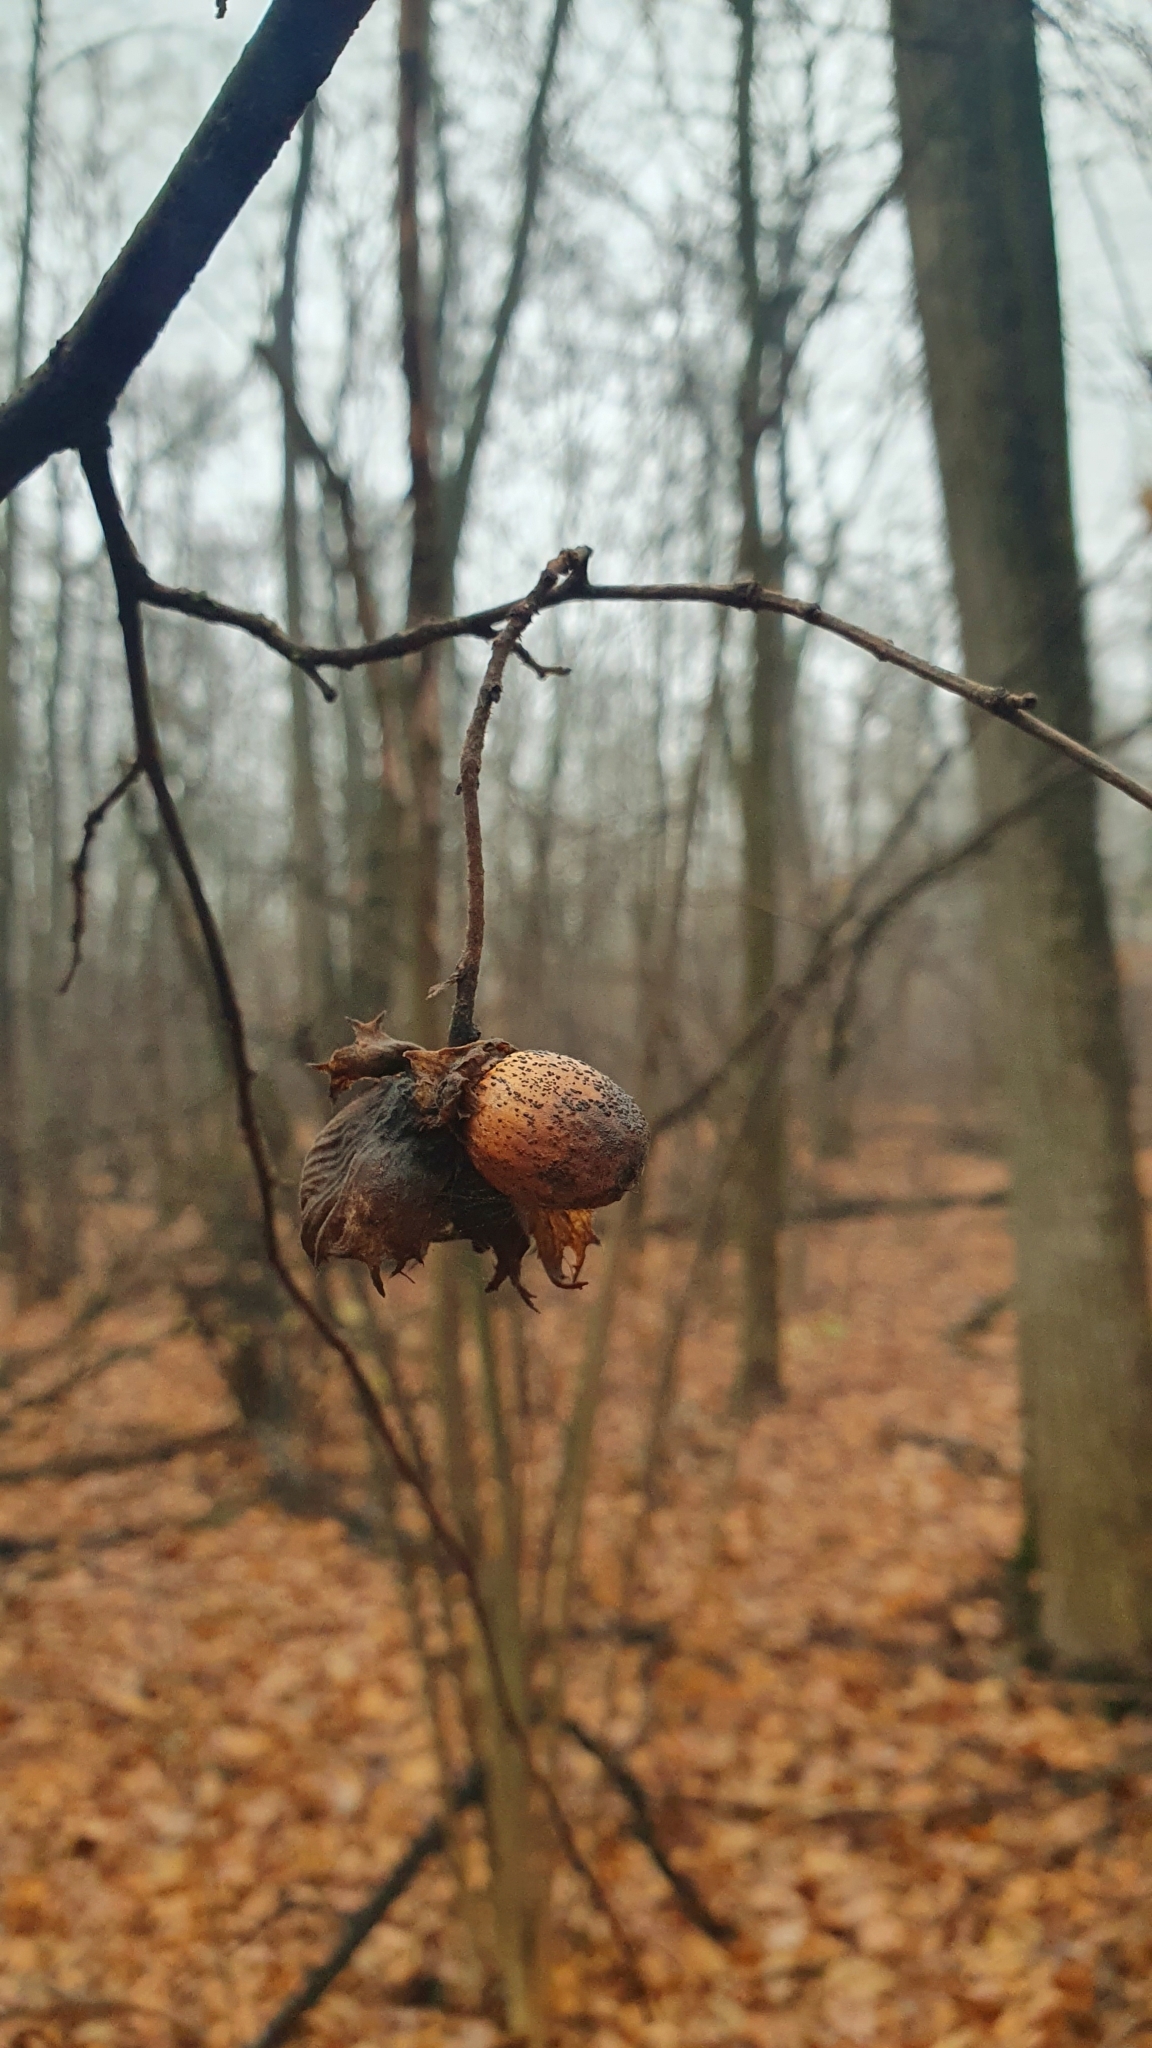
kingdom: Plantae
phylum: Tracheophyta
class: Magnoliopsida
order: Fagales
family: Betulaceae
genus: Corylus
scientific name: Corylus avellana
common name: European hazel
